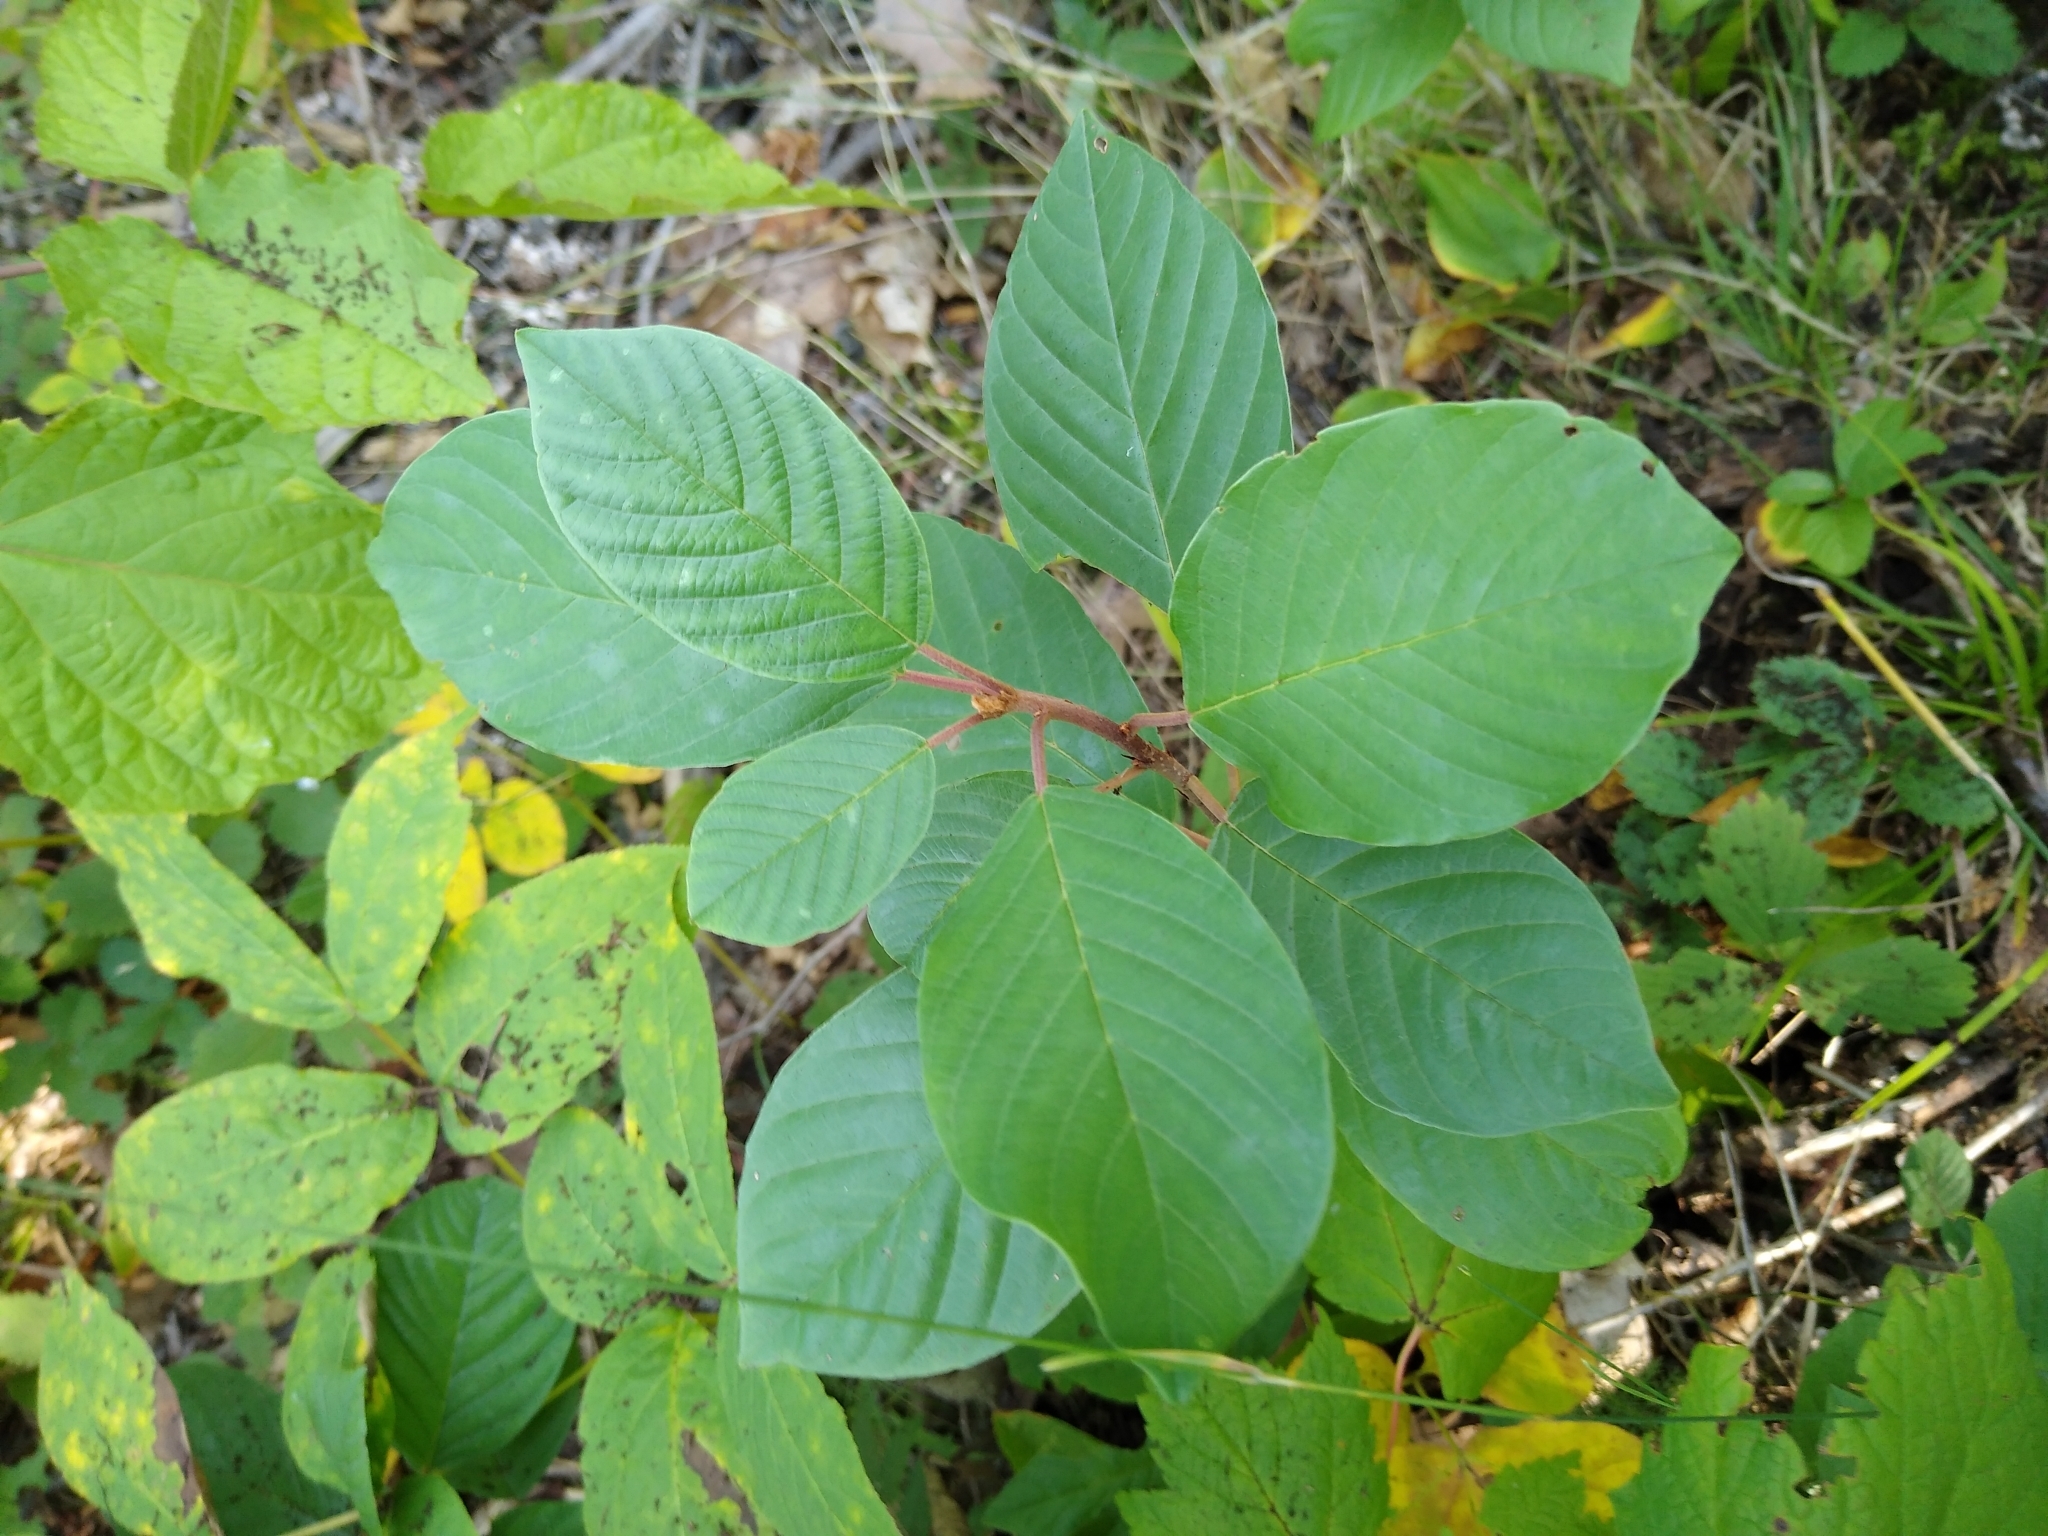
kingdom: Plantae
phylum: Tracheophyta
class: Magnoliopsida
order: Rosales
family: Rhamnaceae
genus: Frangula
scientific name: Frangula alnus
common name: Alder buckthorn
